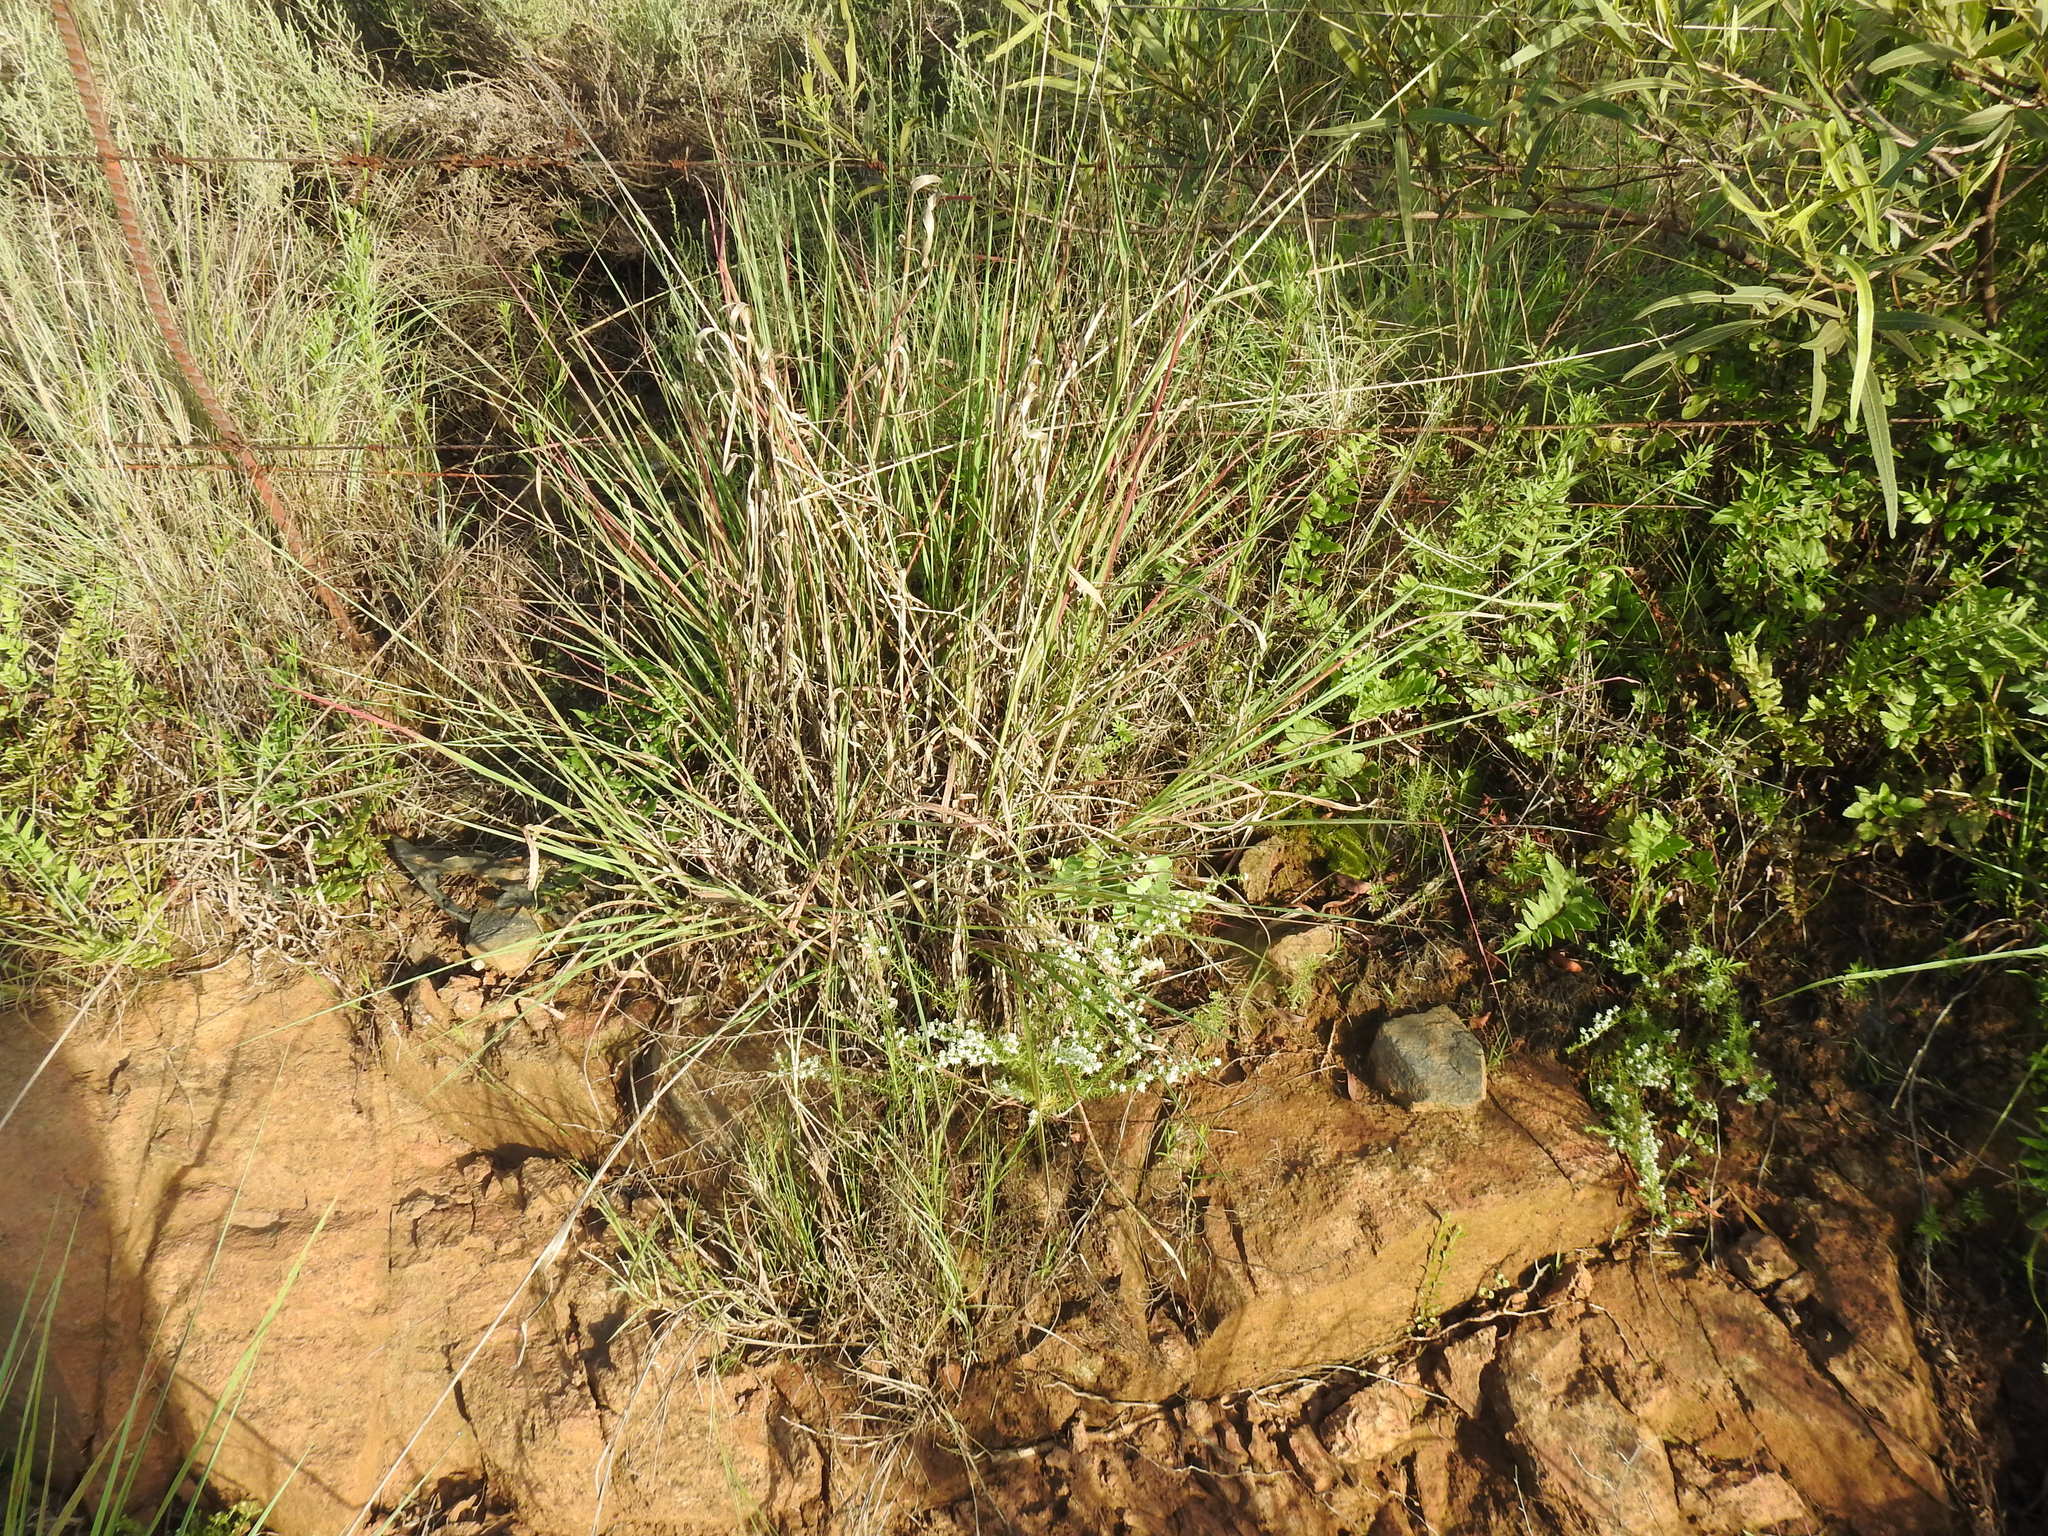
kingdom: Plantae
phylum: Tracheophyta
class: Magnoliopsida
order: Lamiales
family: Scrophulariaceae
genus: Selago
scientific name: Selago densiflora
